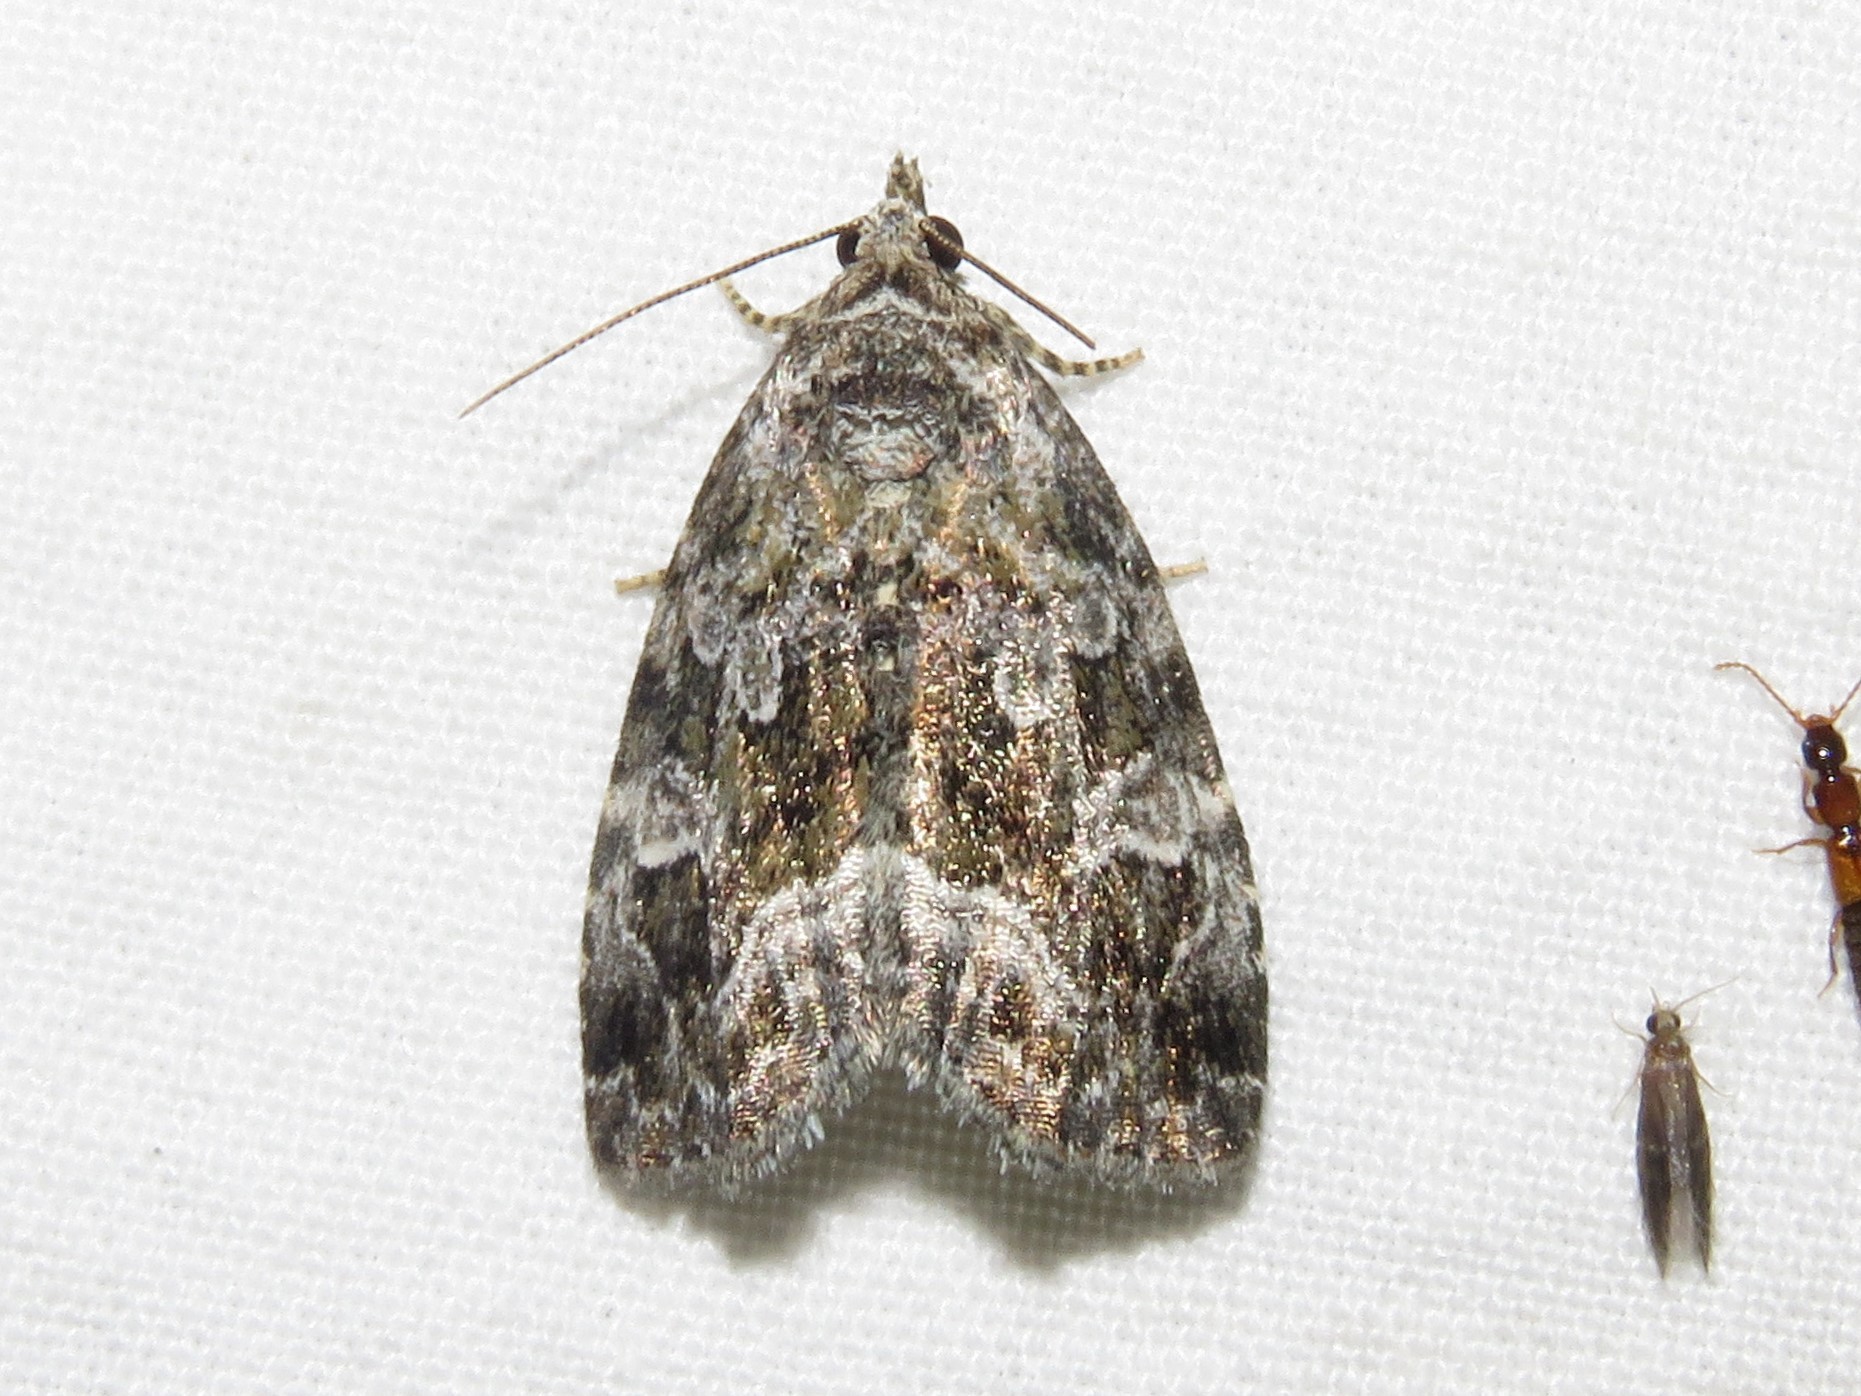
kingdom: Animalia
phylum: Arthropoda
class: Insecta
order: Lepidoptera
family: Noctuidae
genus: Protodeltote
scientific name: Protodeltote muscosula
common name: Large mossy glyph
